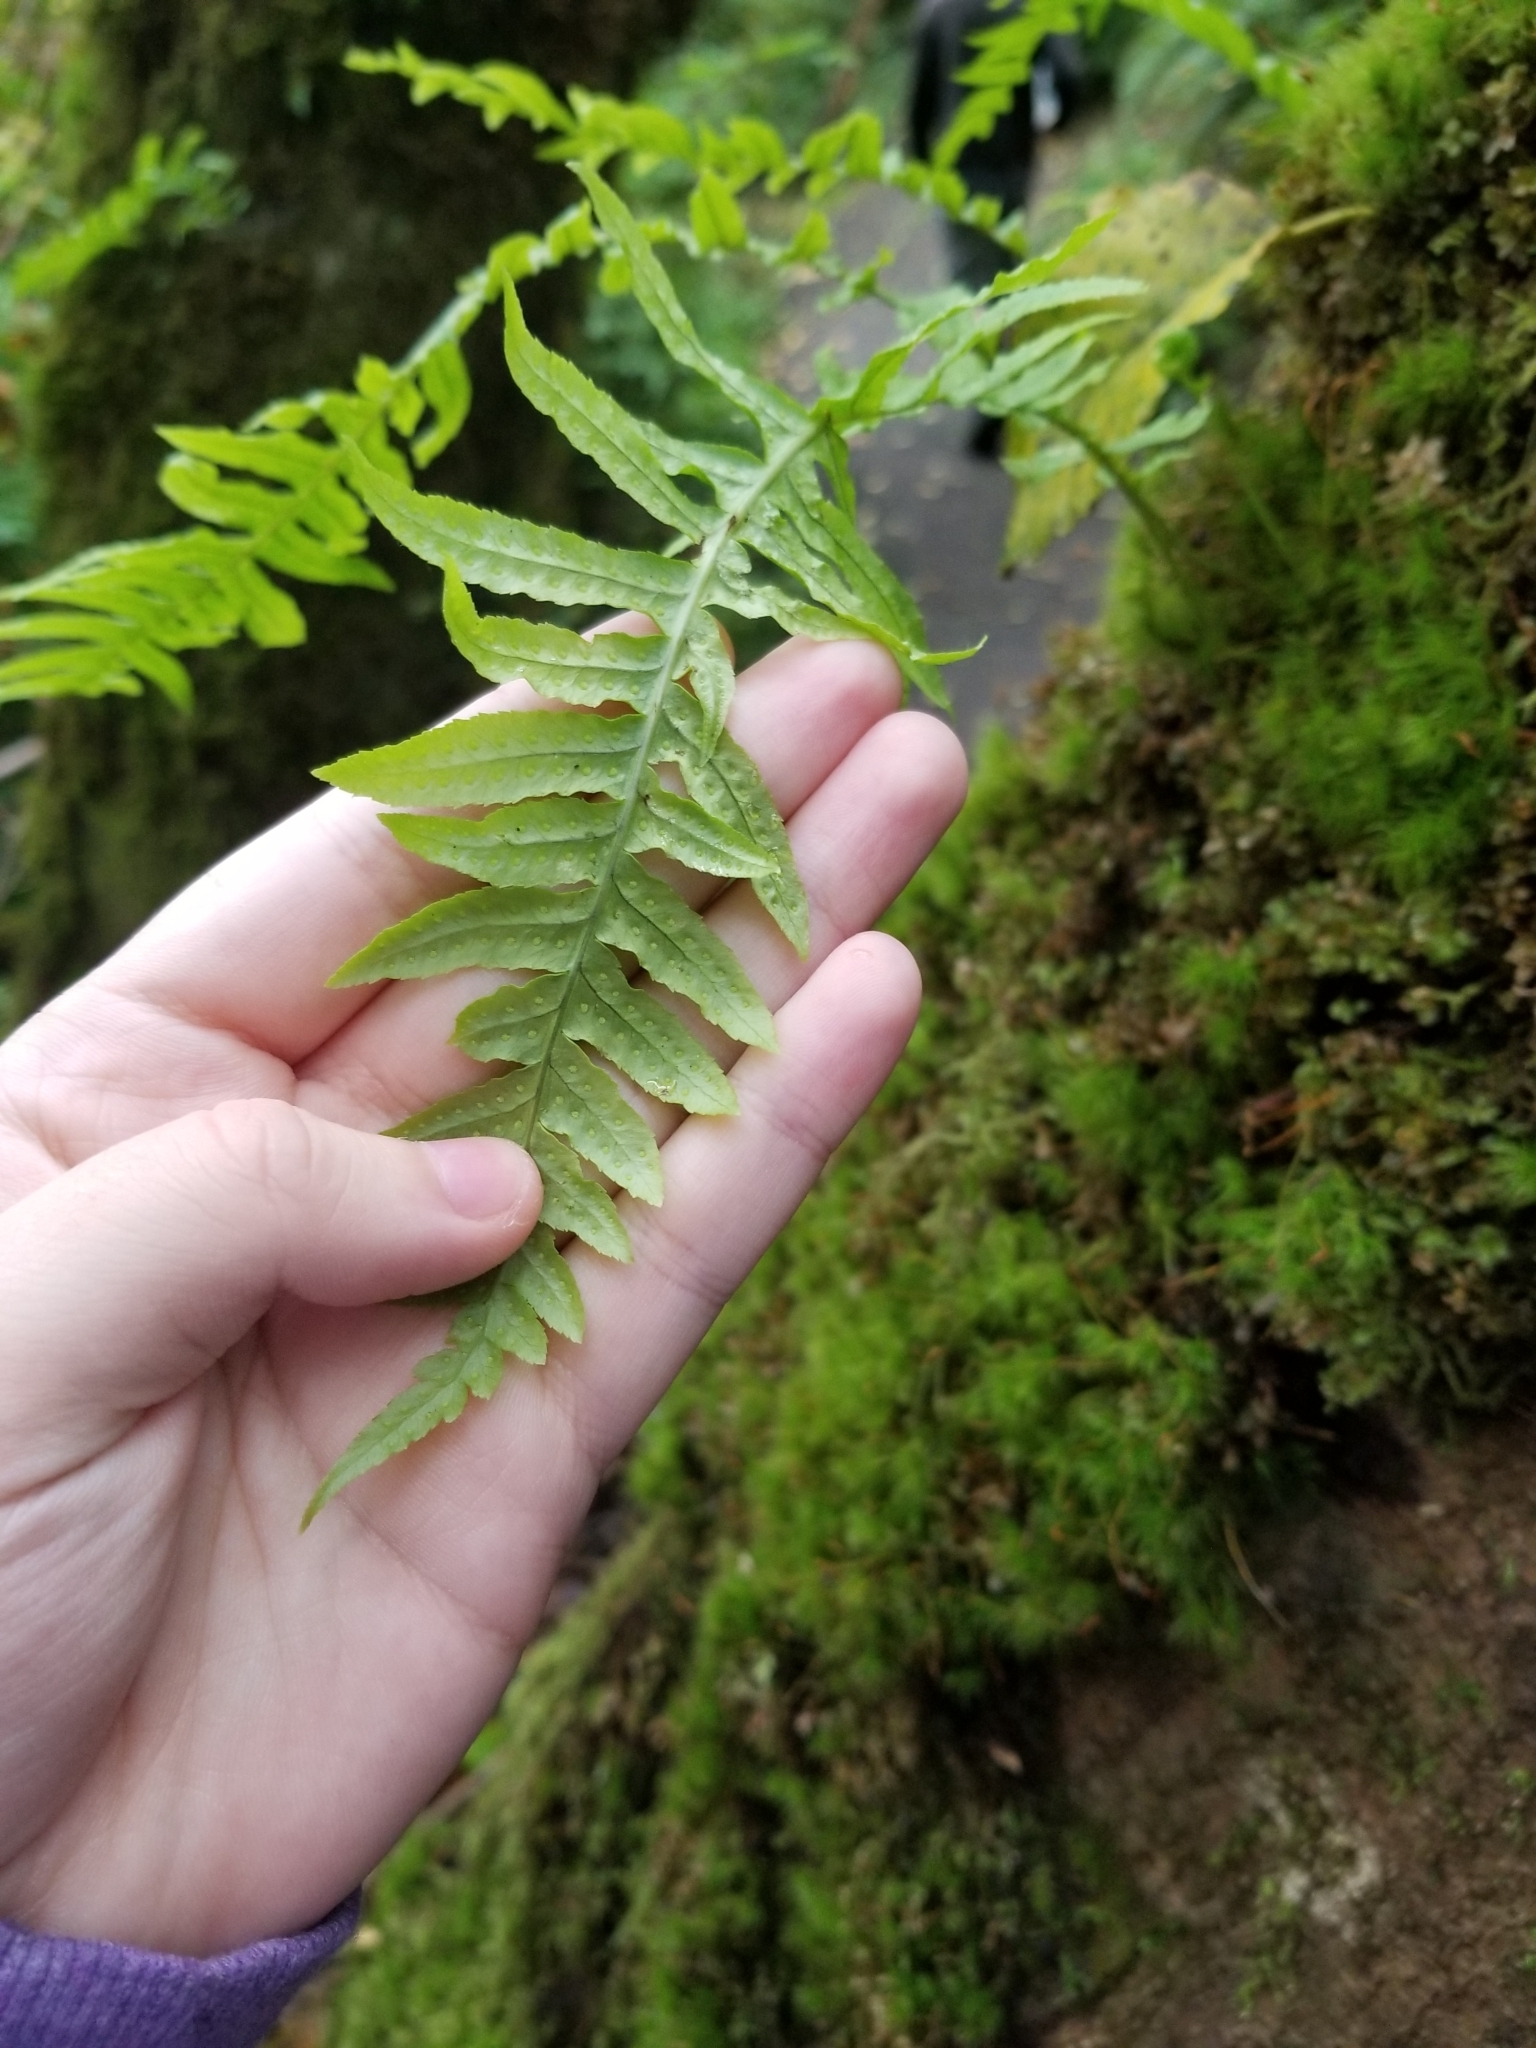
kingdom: Plantae
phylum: Tracheophyta
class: Polypodiopsida
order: Polypodiales
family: Polypodiaceae
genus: Polypodium
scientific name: Polypodium glycyrrhiza
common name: Licorice fern
